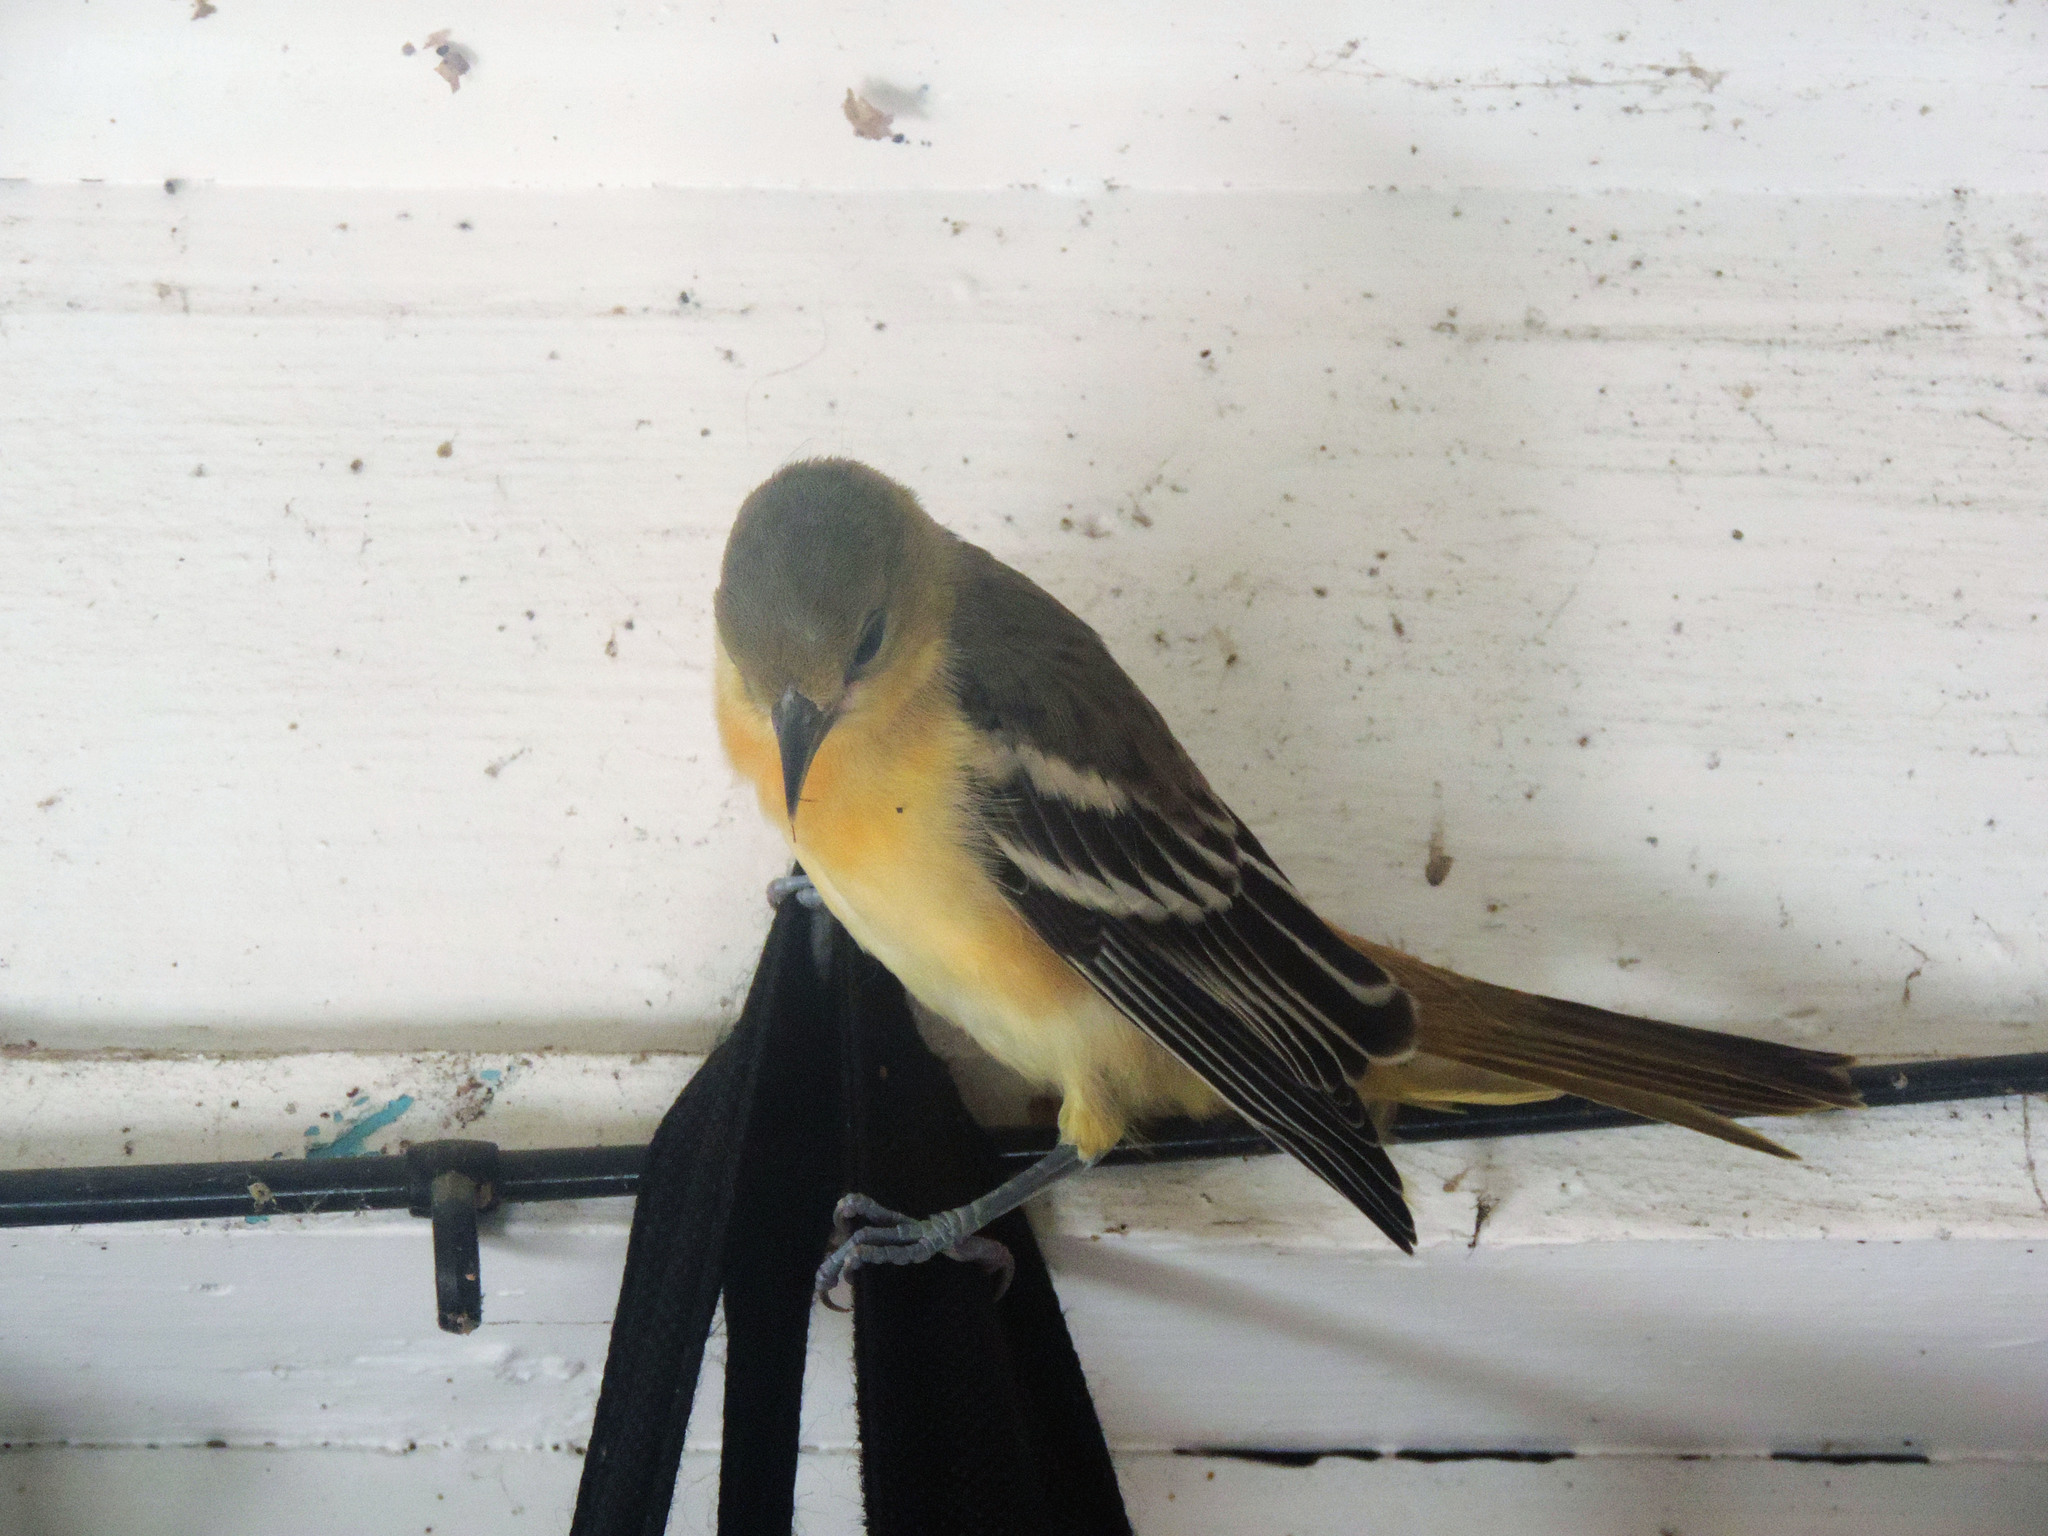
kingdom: Animalia
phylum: Chordata
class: Aves
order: Passeriformes
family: Icteridae
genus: Icterus
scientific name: Icterus galbula
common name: Baltimore oriole
